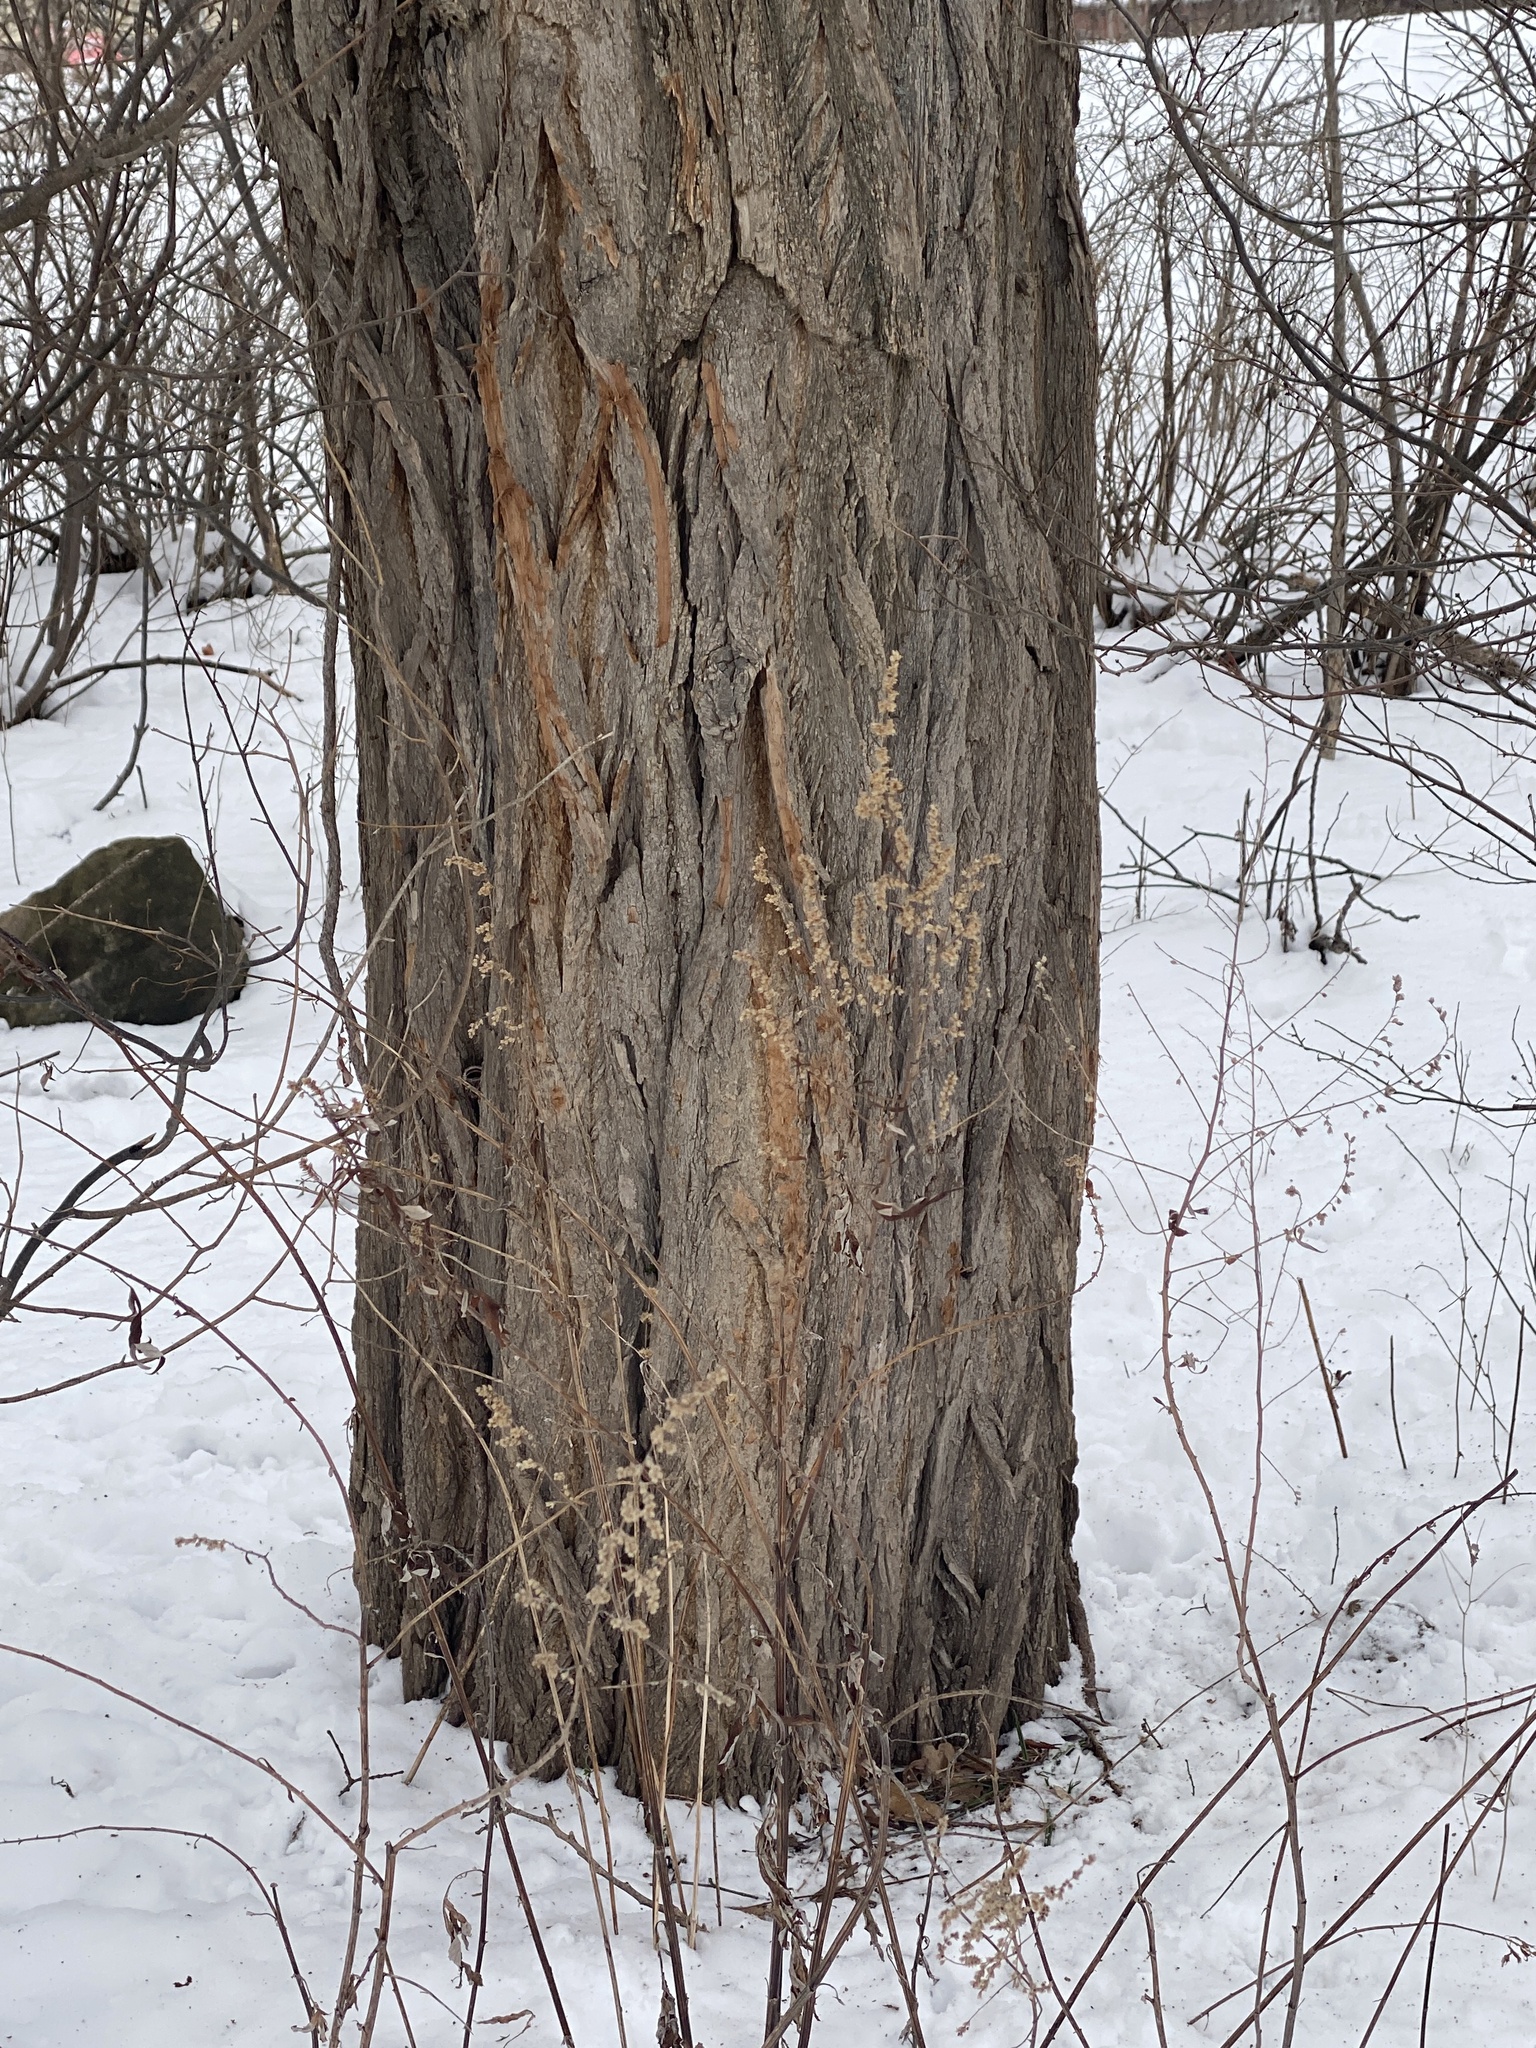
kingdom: Plantae
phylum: Tracheophyta
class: Magnoliopsida
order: Fabales
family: Fabaceae
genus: Robinia
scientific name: Robinia pseudoacacia
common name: Black locust
